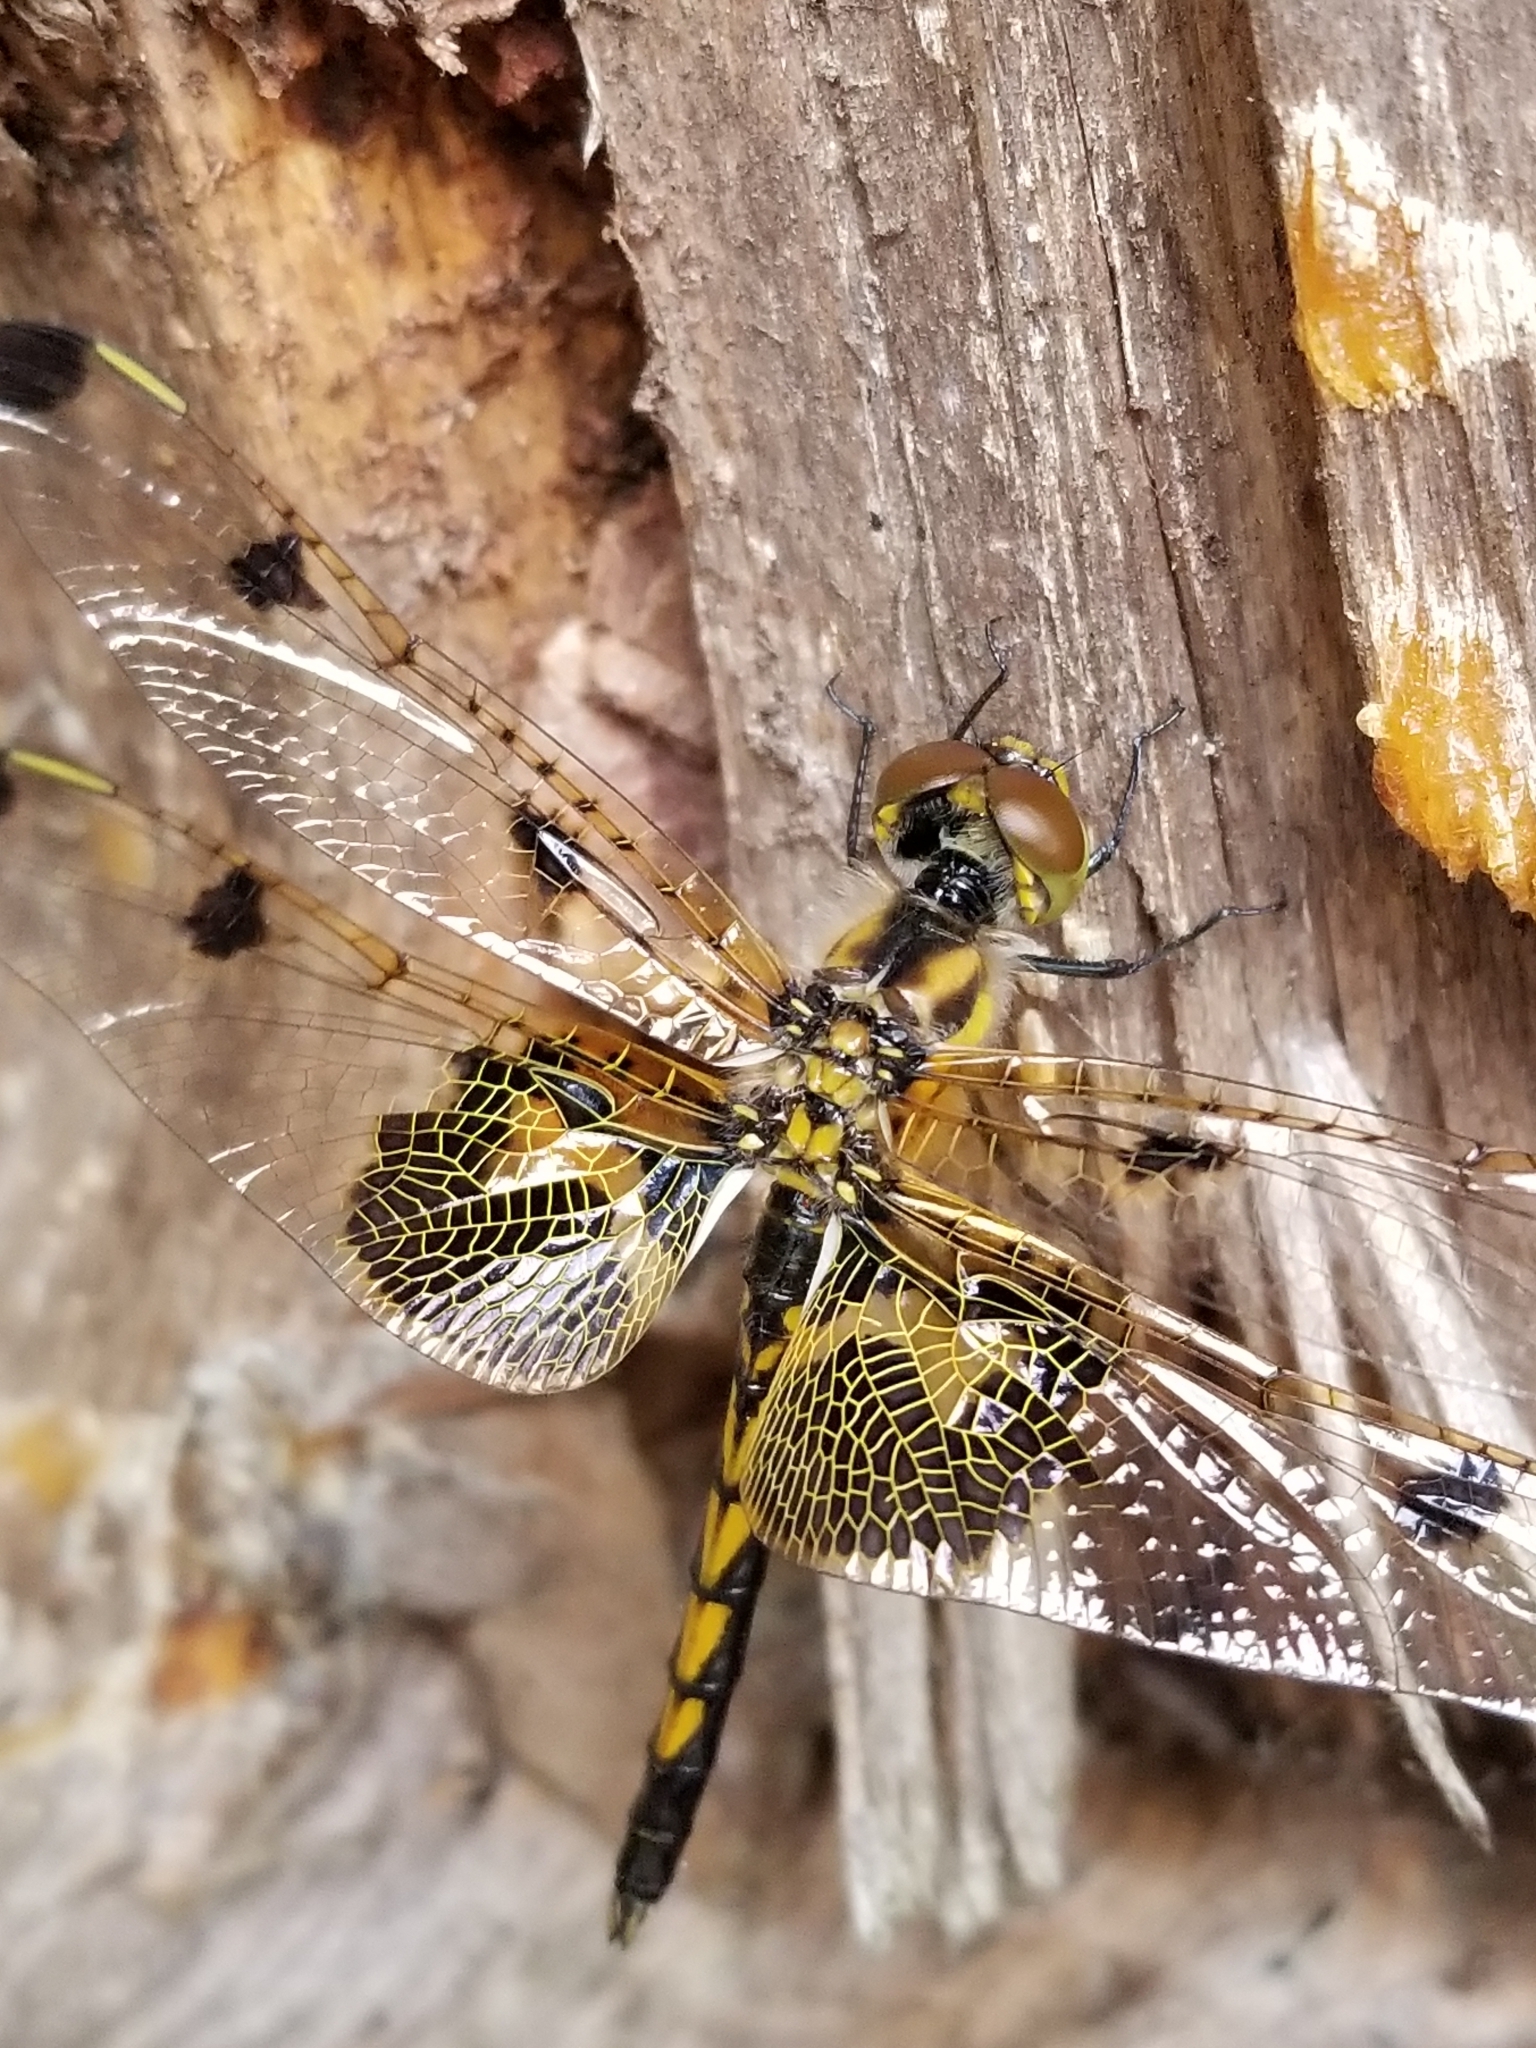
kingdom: Animalia
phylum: Arthropoda
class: Insecta
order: Odonata
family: Libellulidae
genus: Celithemis
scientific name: Celithemis elisa
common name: Calico pennant
